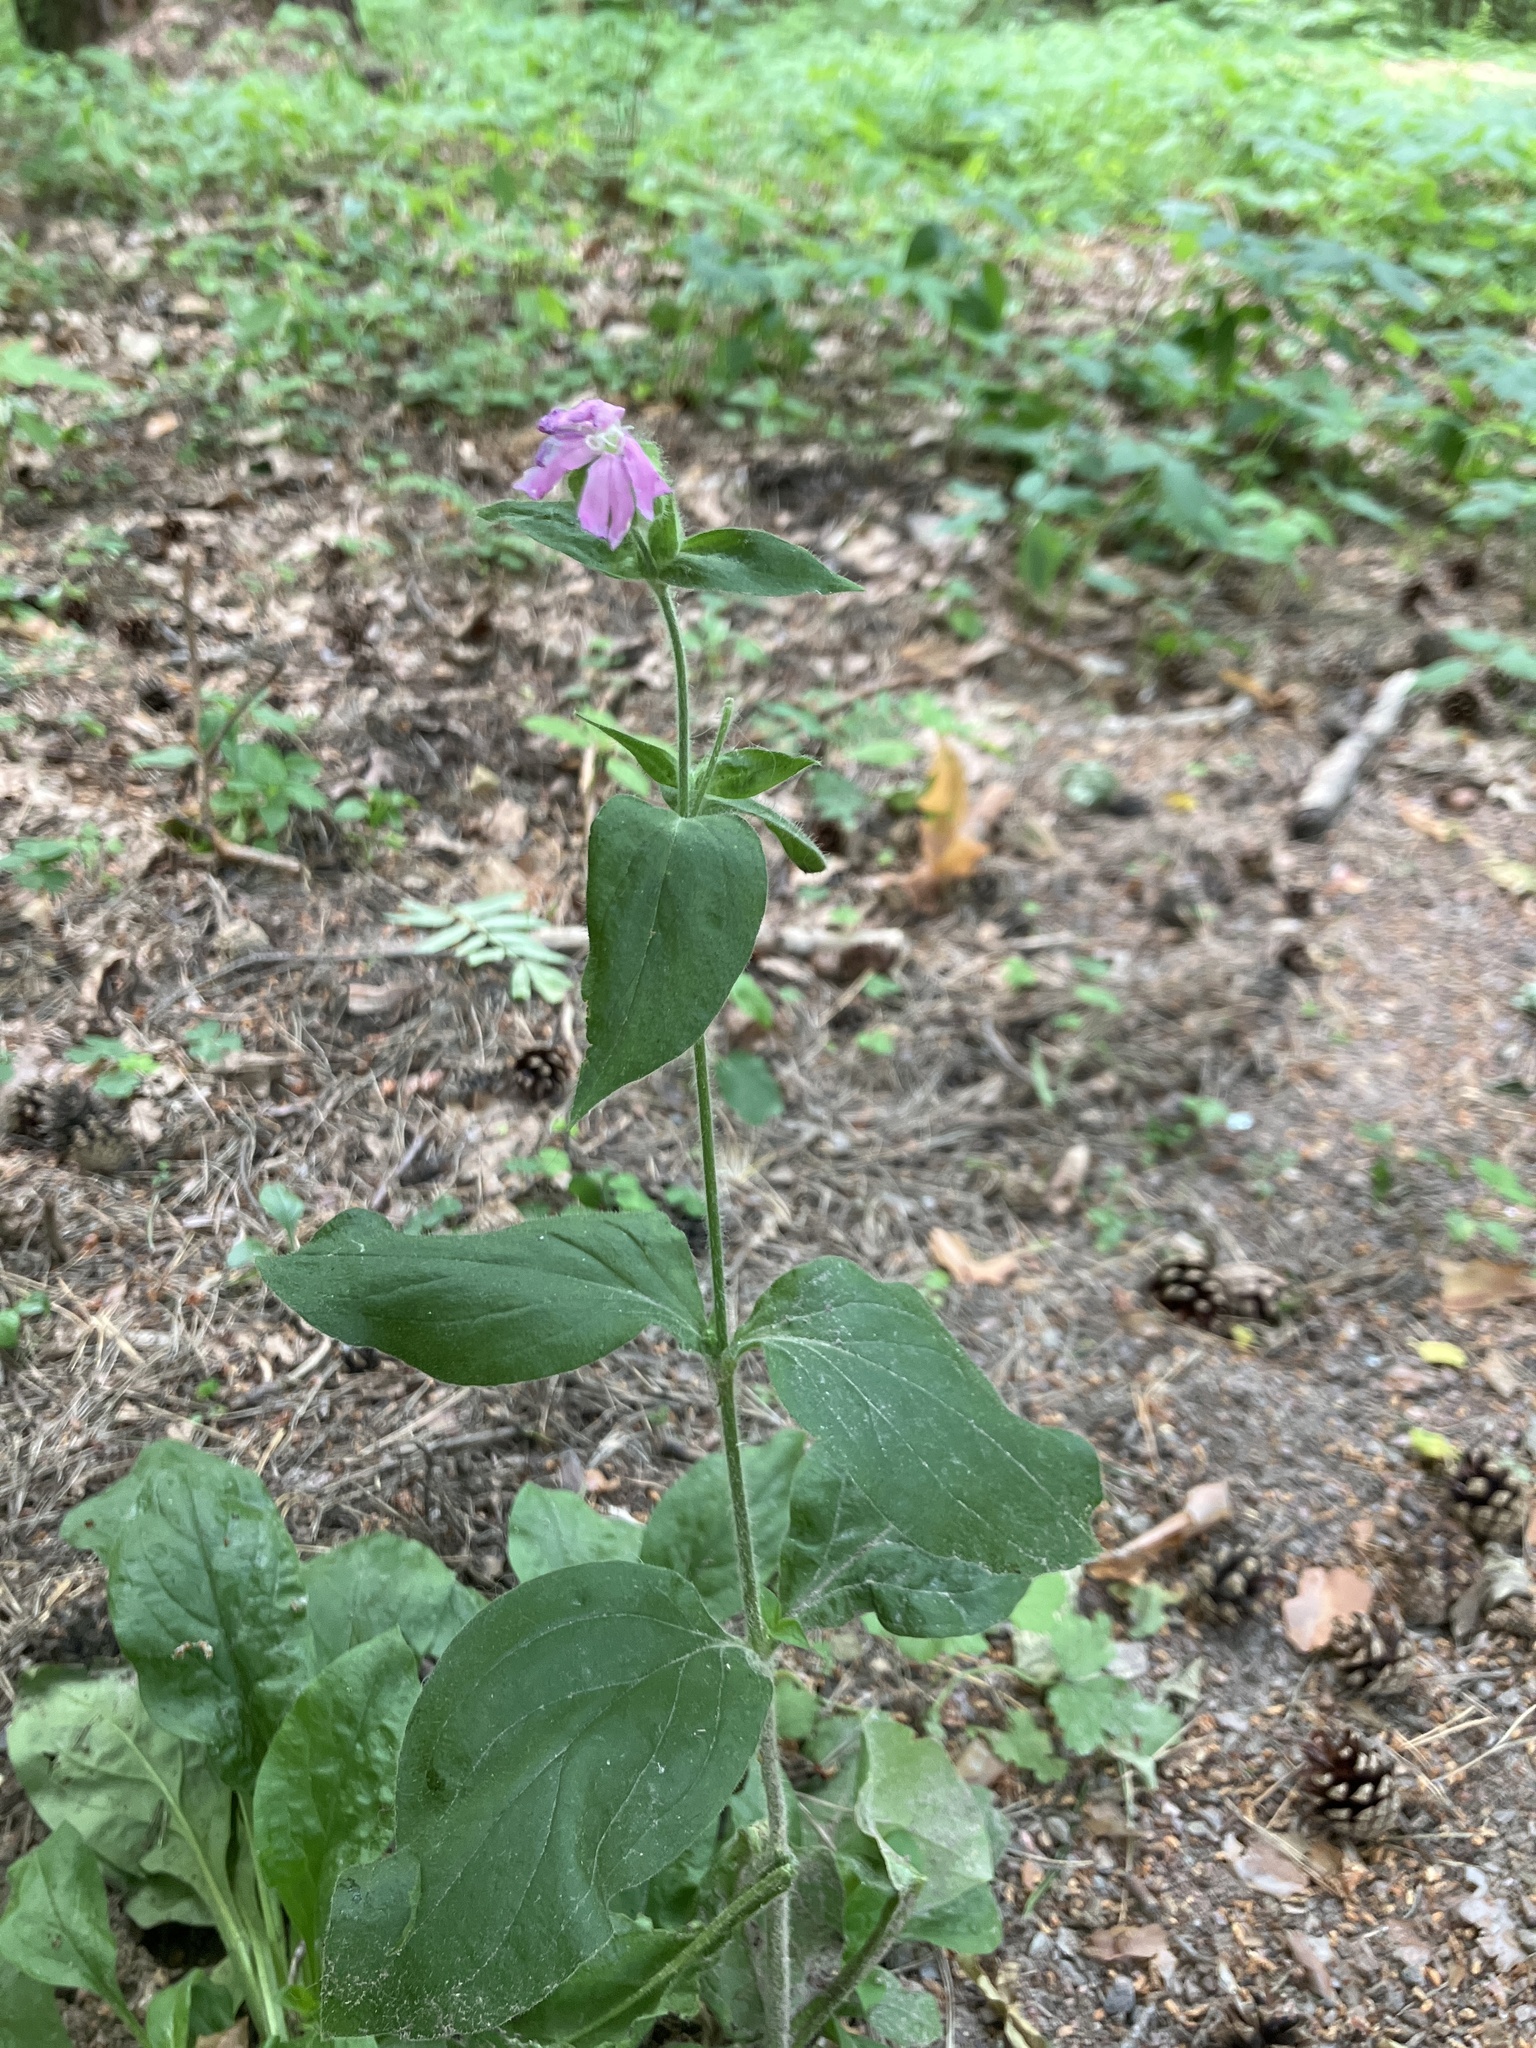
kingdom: Plantae
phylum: Tracheophyta
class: Magnoliopsida
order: Caryophyllales
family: Caryophyllaceae
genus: Silene
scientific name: Silene dioica
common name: Red campion
